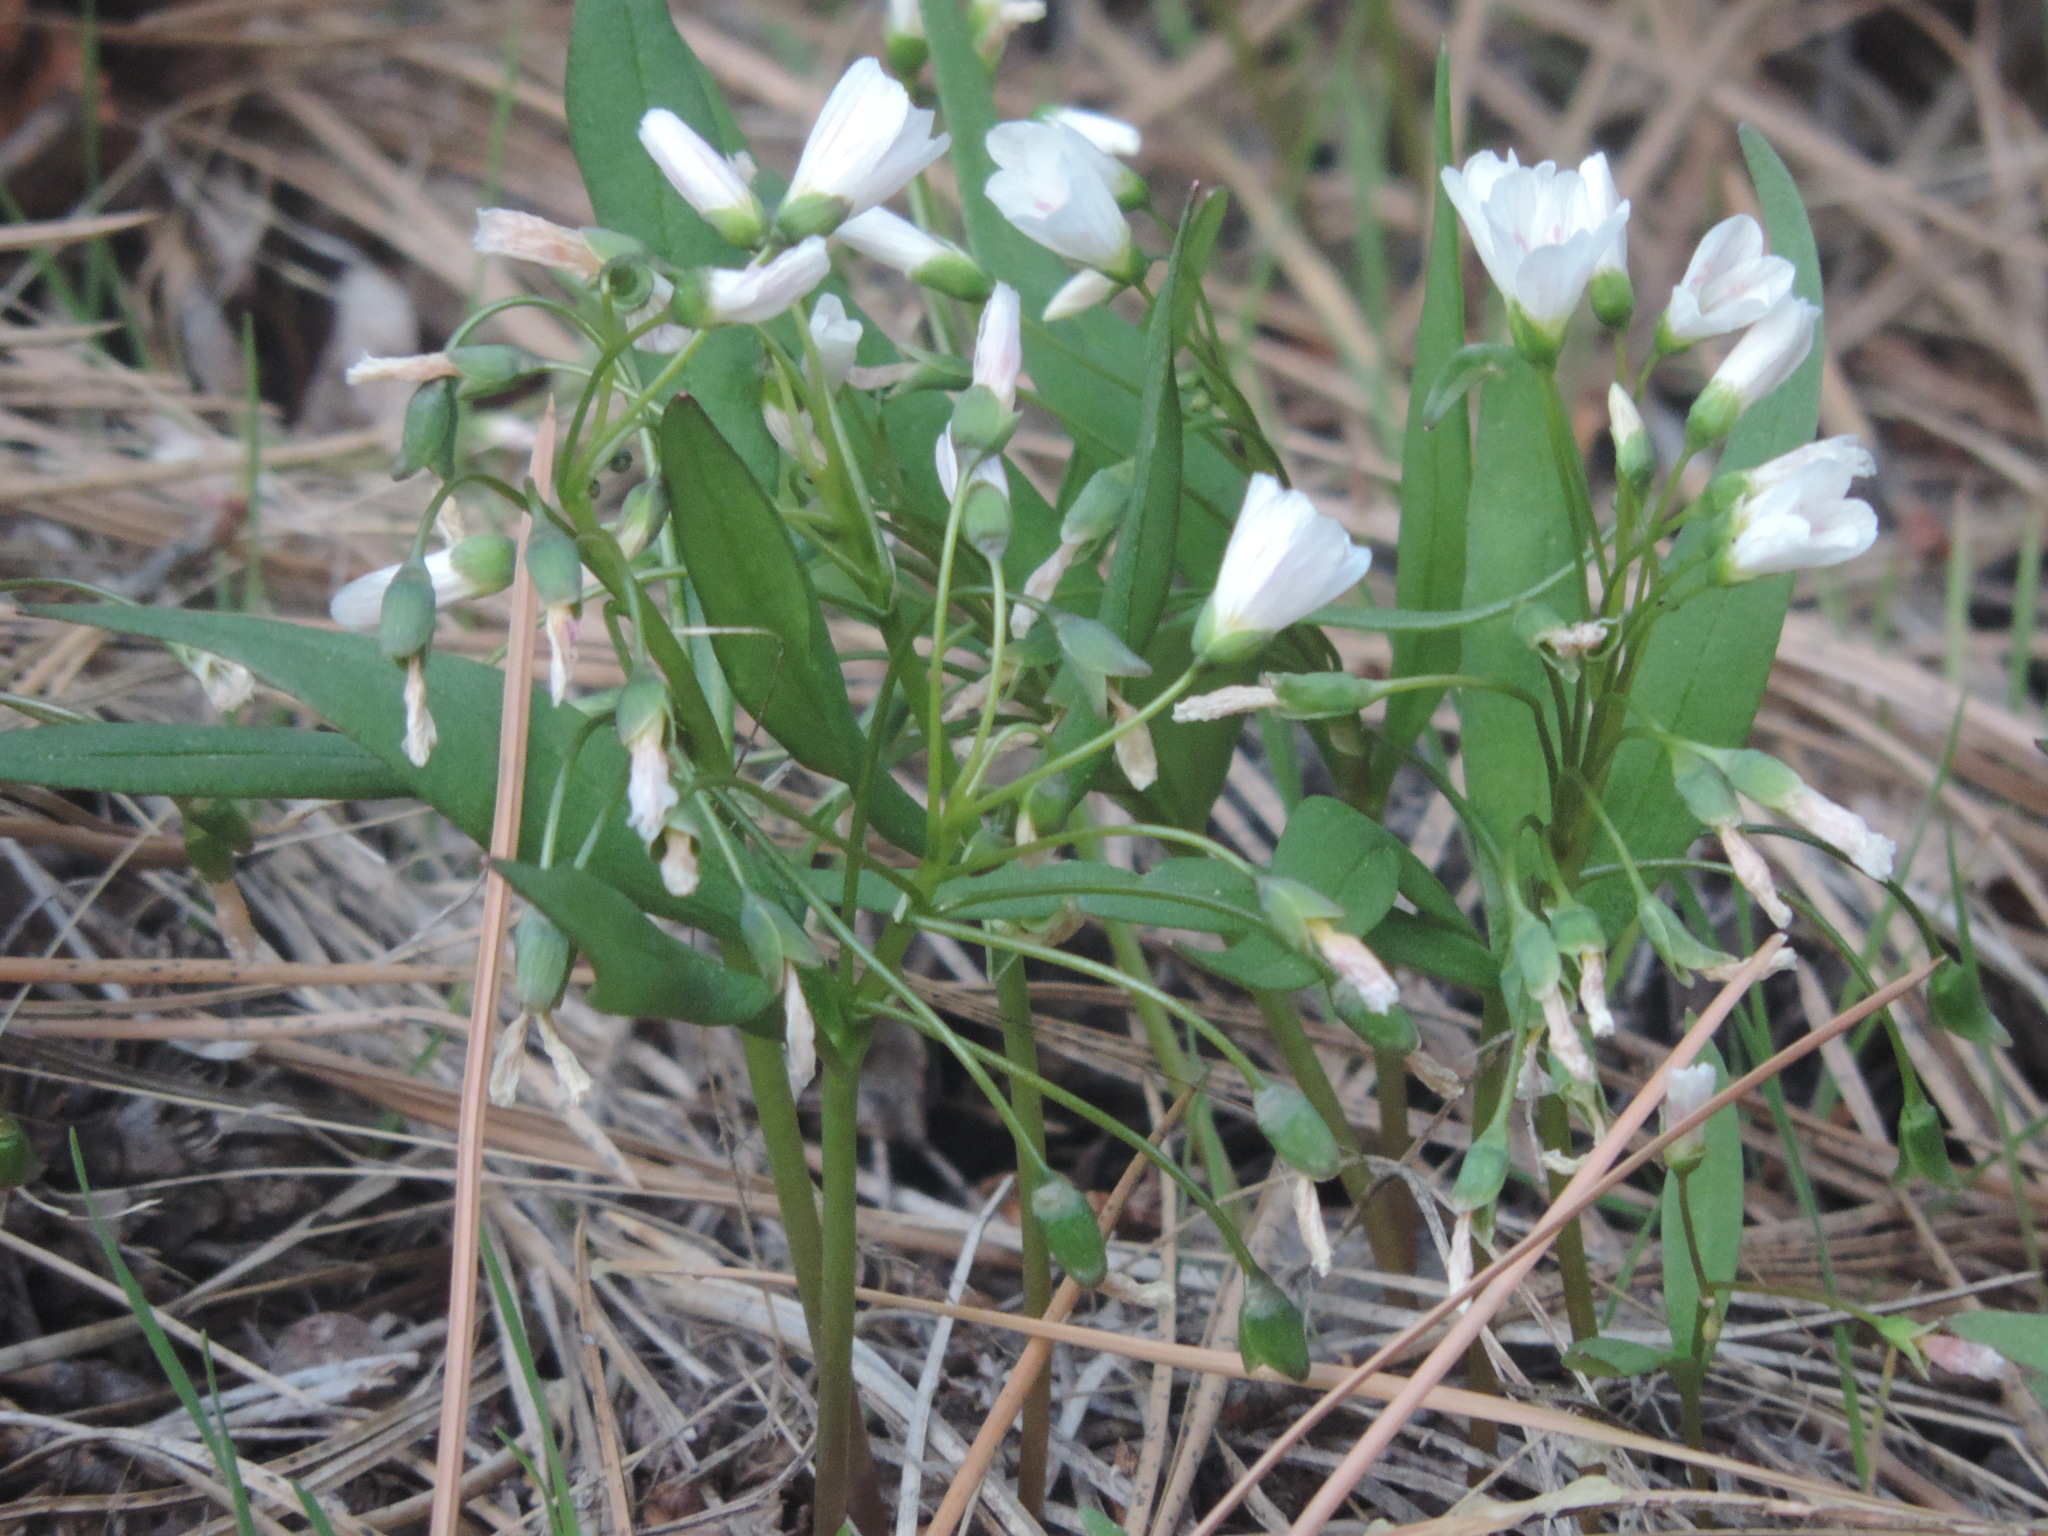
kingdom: Plantae
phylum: Tracheophyta
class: Magnoliopsida
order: Caryophyllales
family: Montiaceae
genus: Claytonia
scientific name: Claytonia lanceolata
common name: Western spring-beauty
